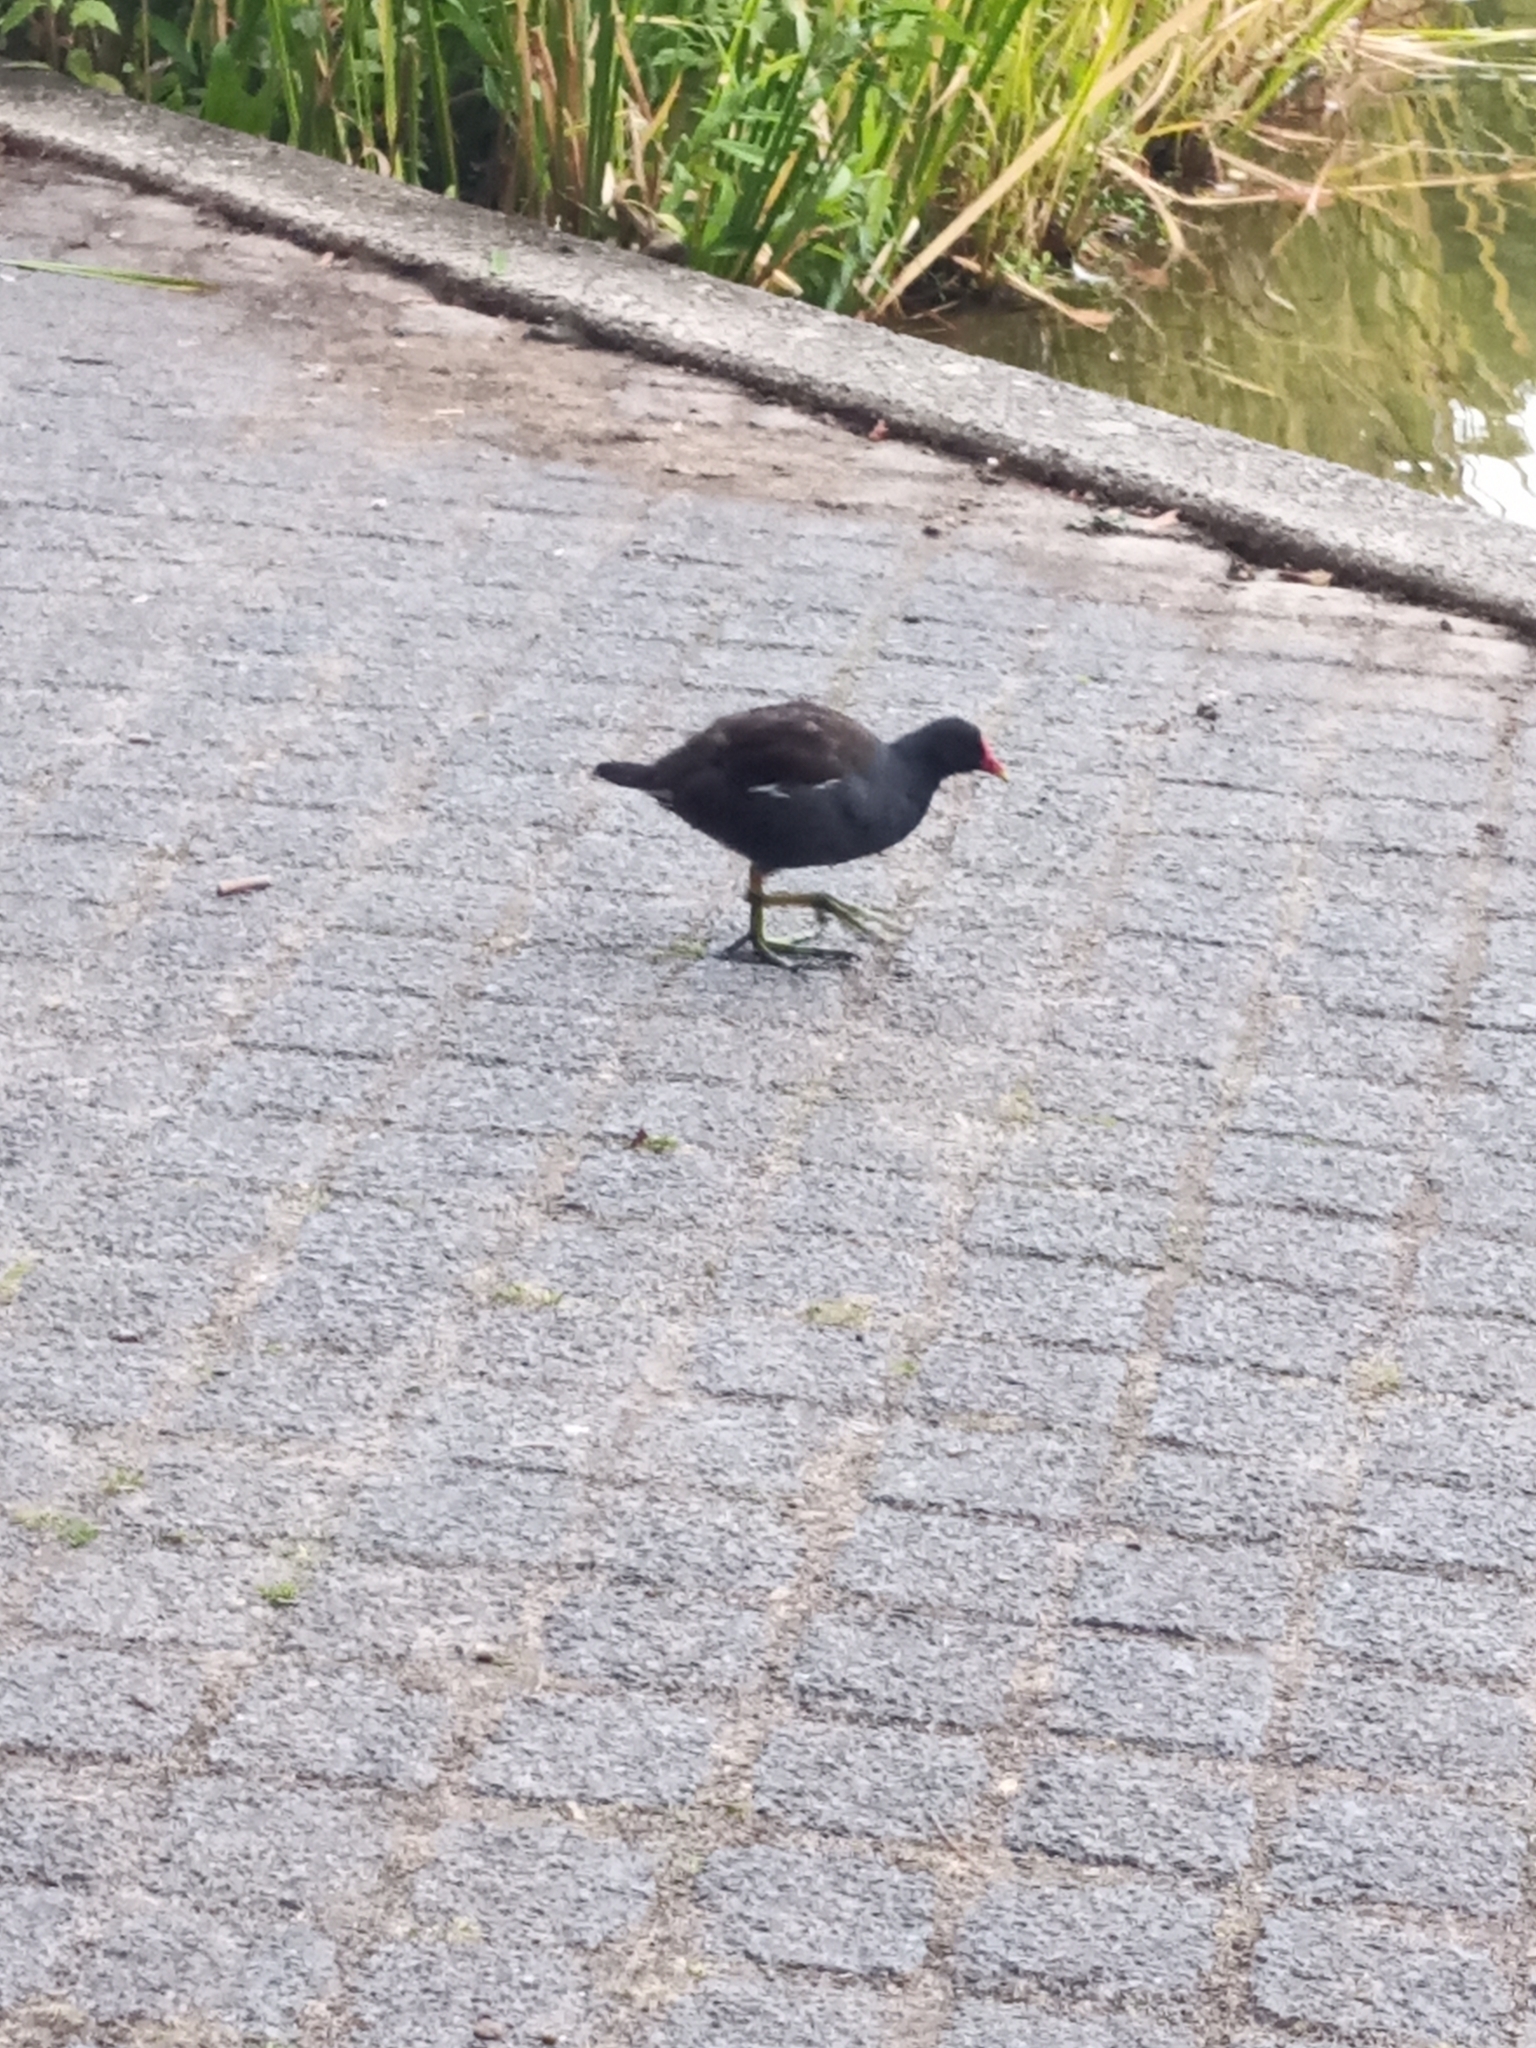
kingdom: Animalia
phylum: Chordata
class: Aves
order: Gruiformes
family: Rallidae
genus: Gallinula
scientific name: Gallinula chloropus
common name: Common moorhen
